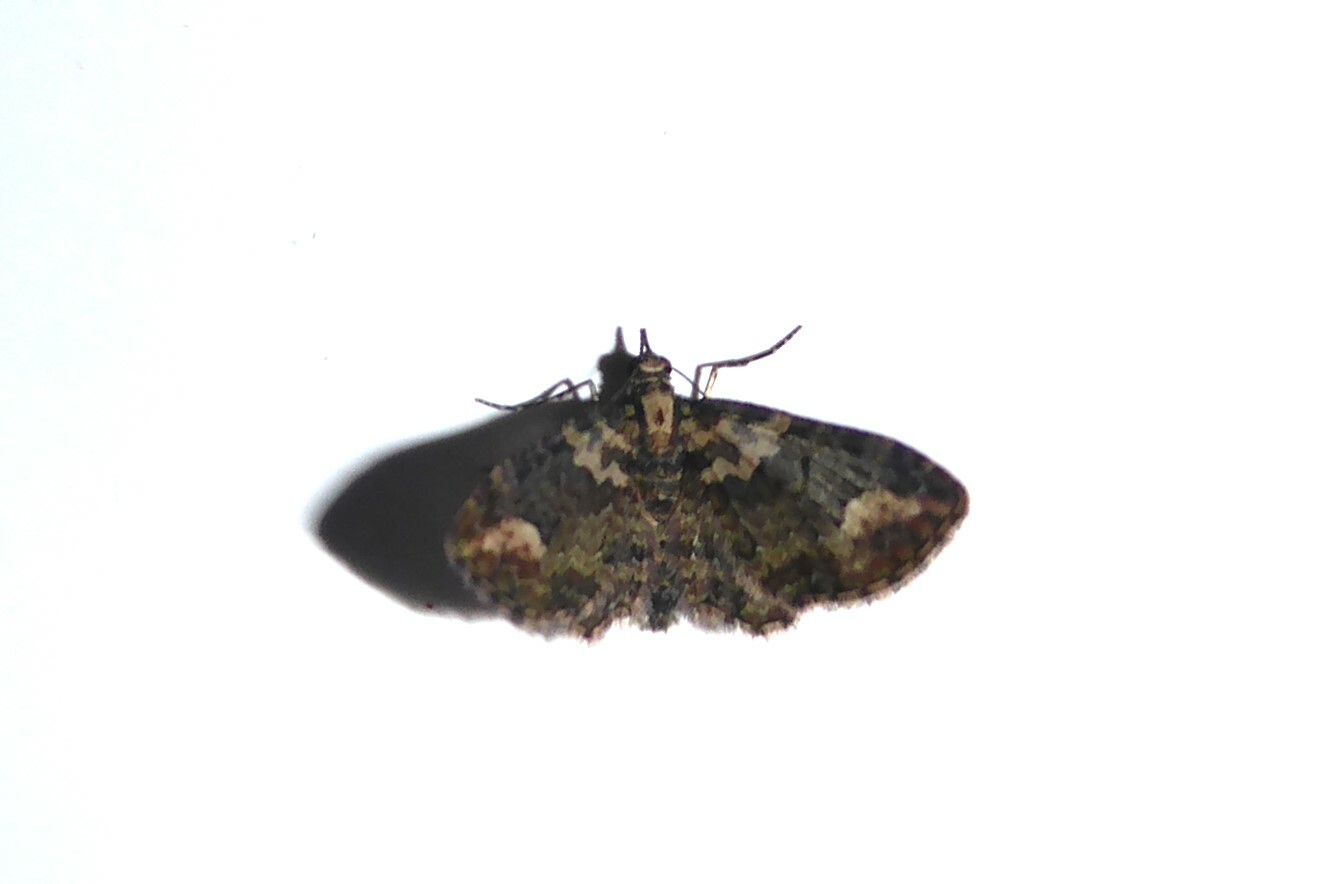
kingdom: Animalia
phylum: Arthropoda
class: Insecta
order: Lepidoptera
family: Geometridae
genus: Pasiphilodes
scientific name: Pasiphilodes testulata
